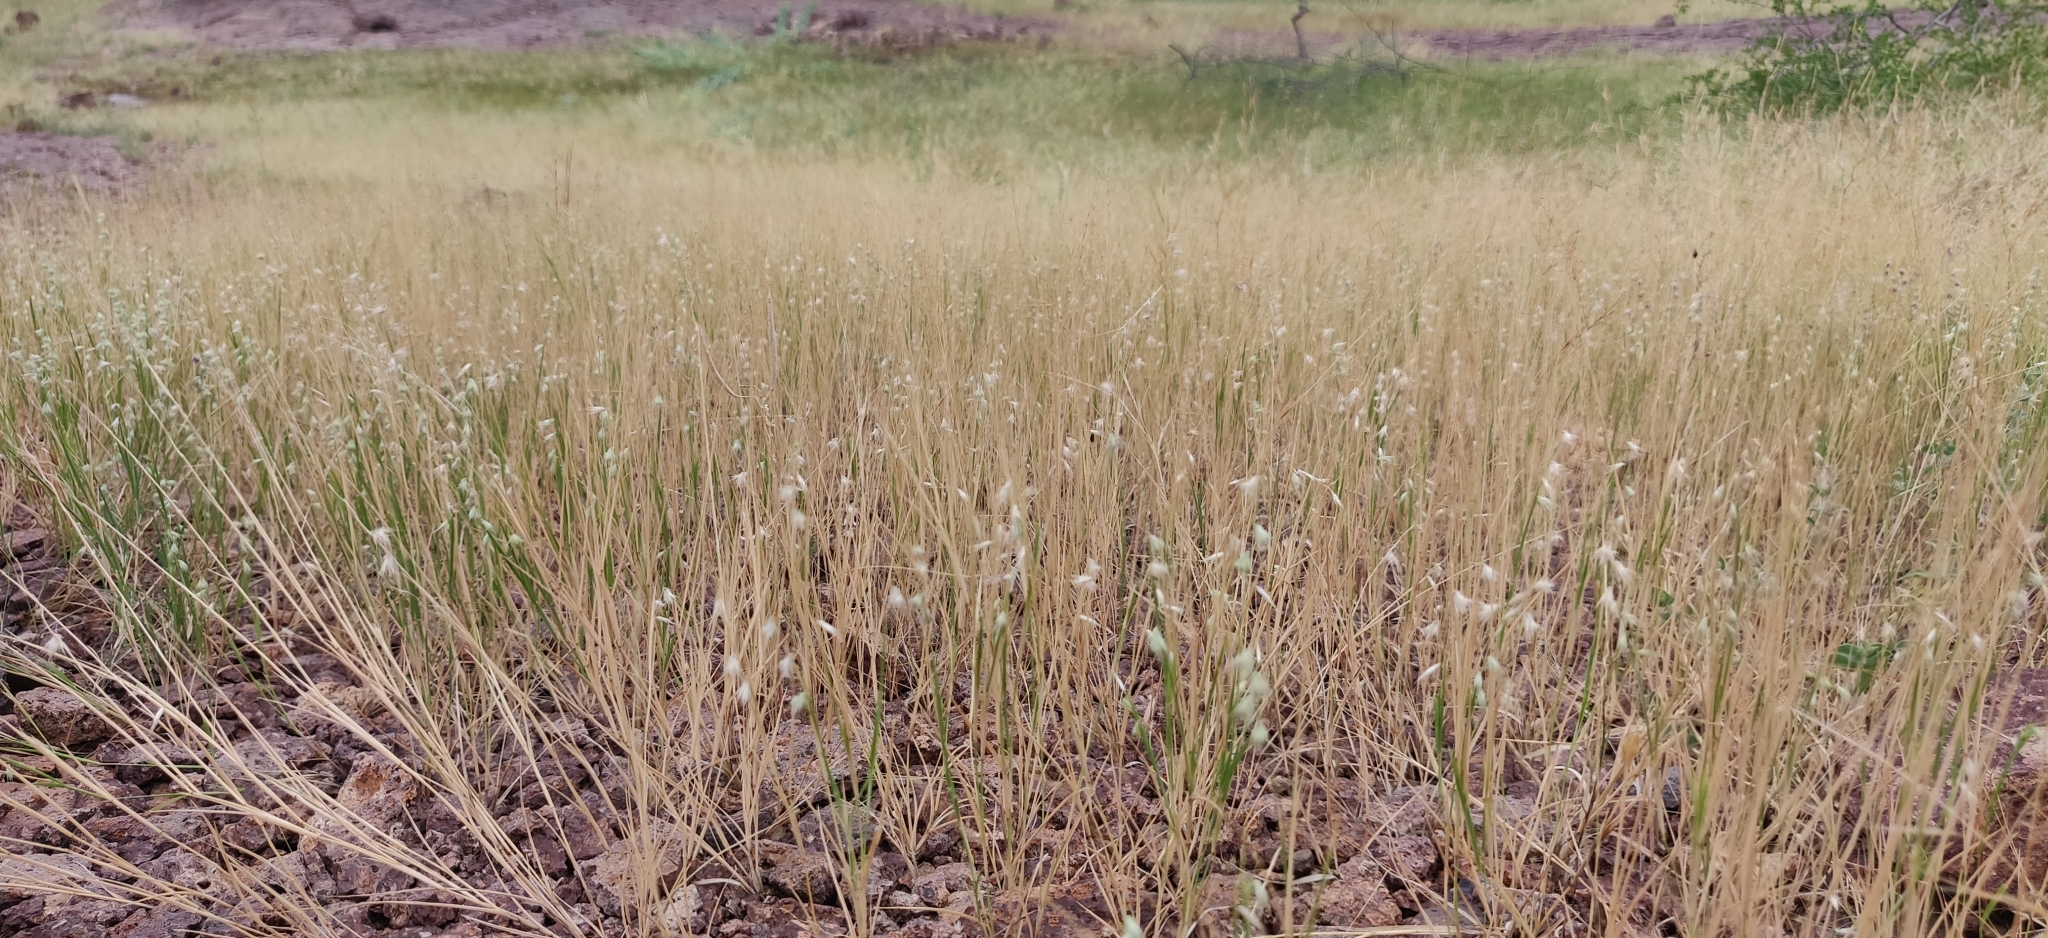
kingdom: Plantae
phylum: Tracheophyta
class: Liliopsida
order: Poales
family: Poaceae
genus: Melanocenchris
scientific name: Melanocenchris jacquemontii
